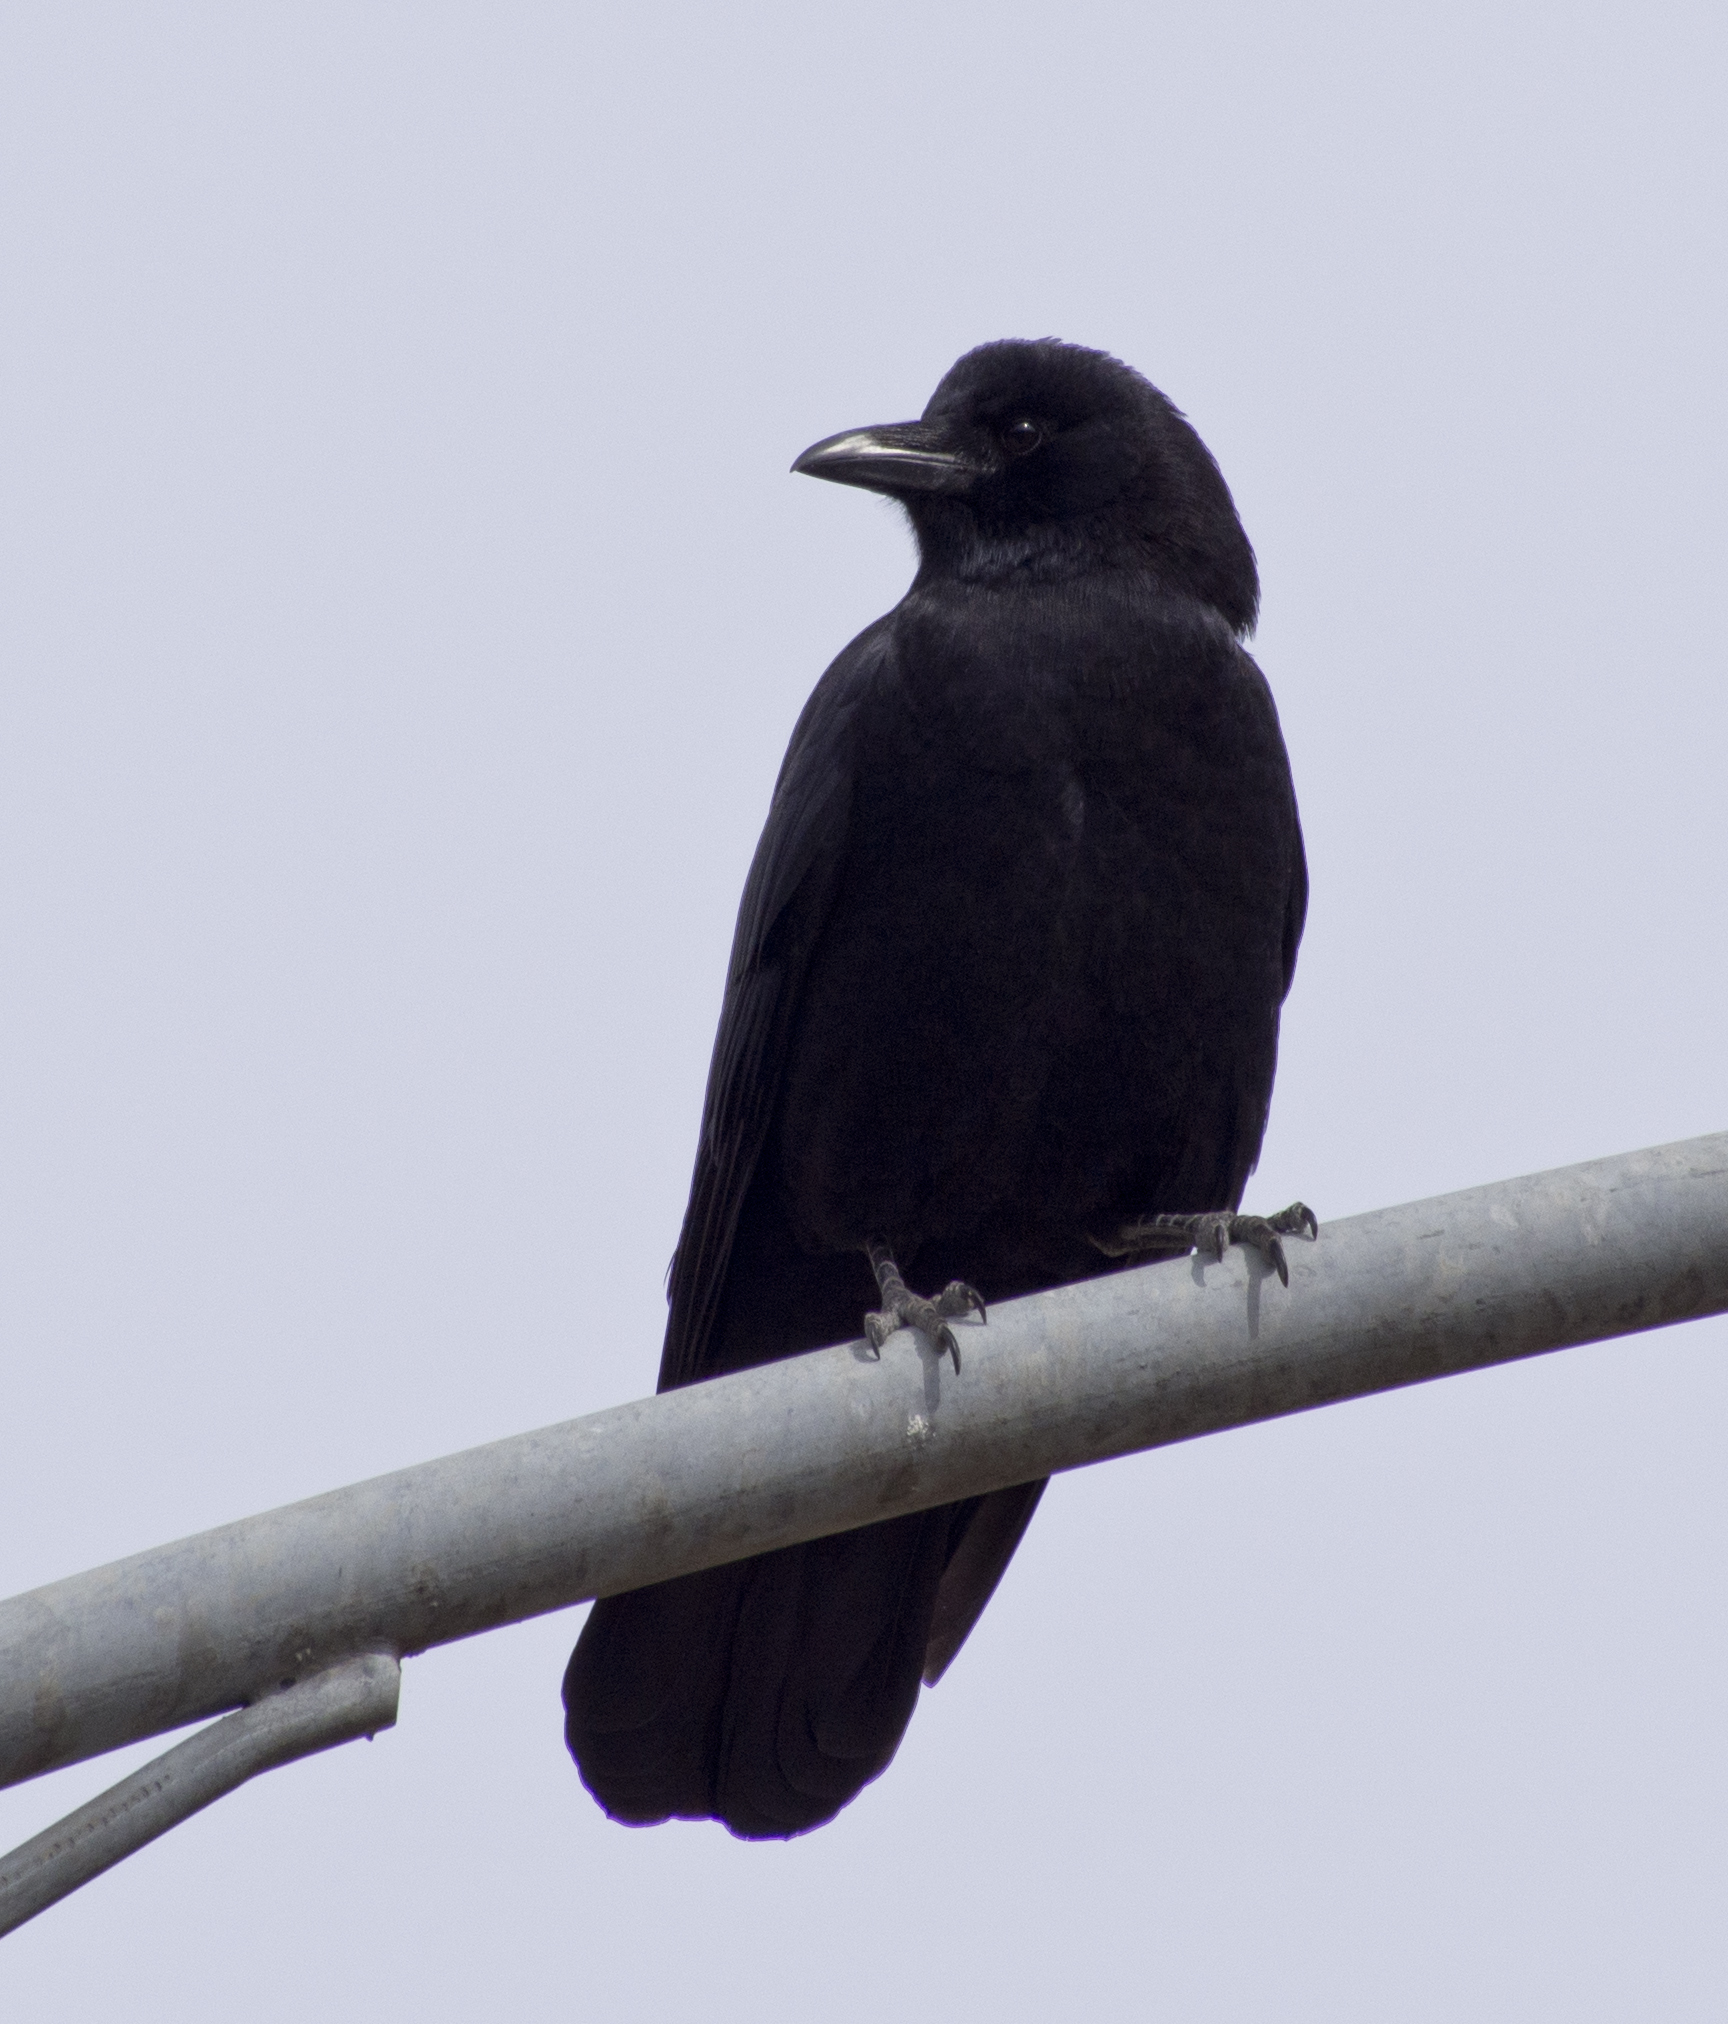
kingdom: Animalia
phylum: Chordata
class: Aves
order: Passeriformes
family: Corvidae
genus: Corvus
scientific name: Corvus
